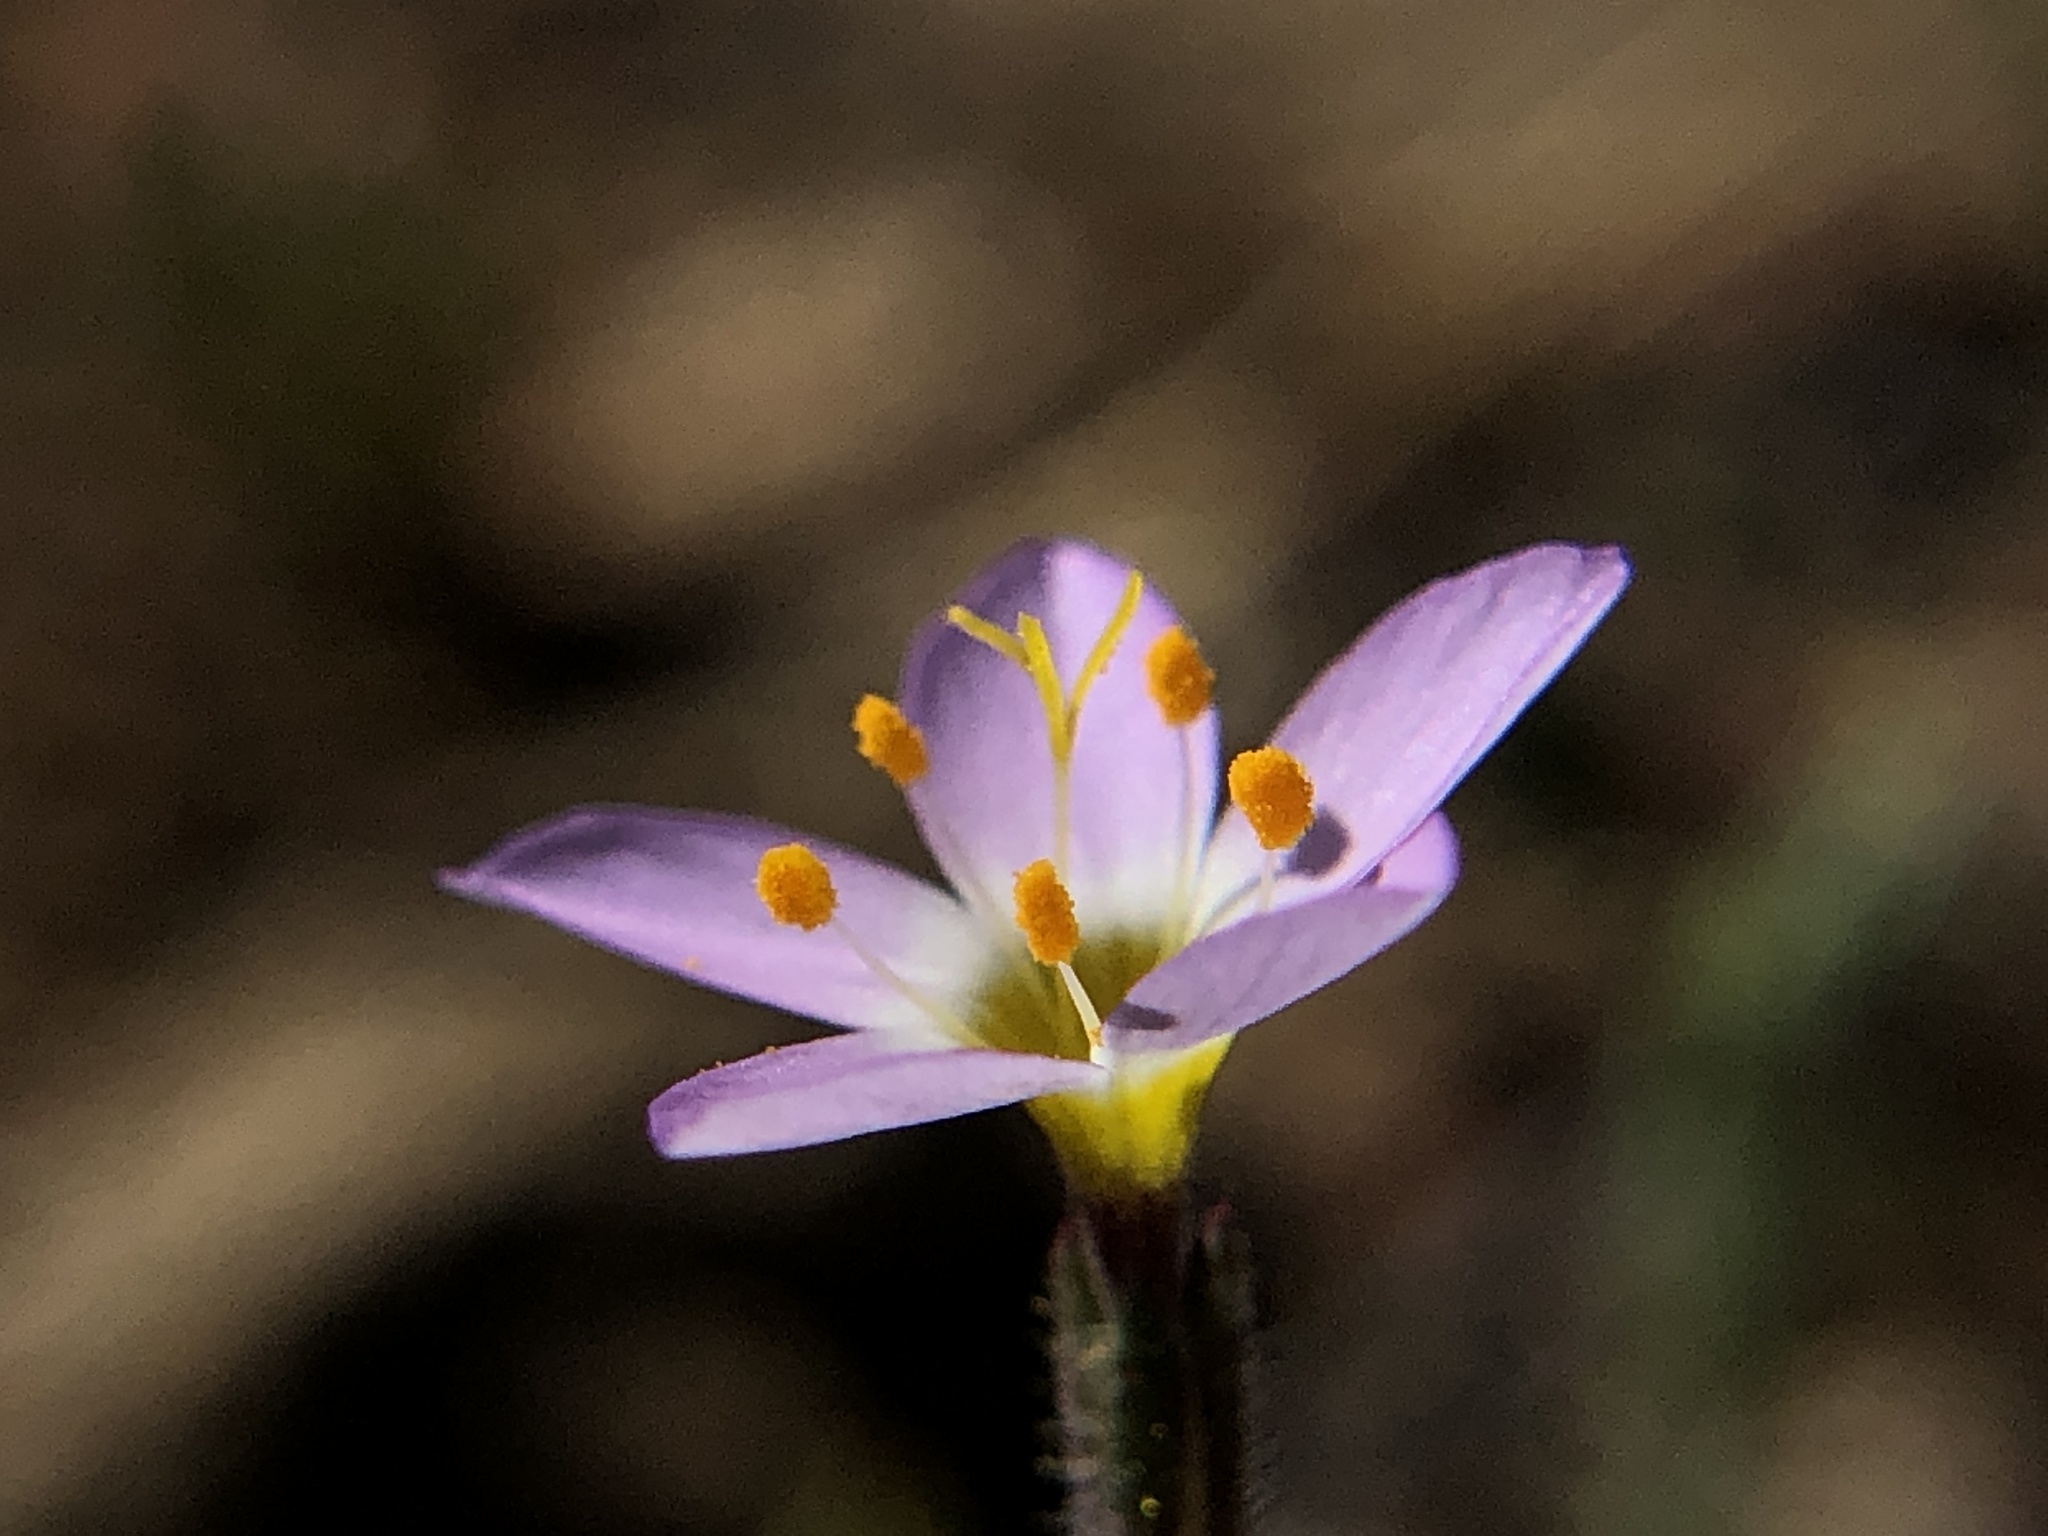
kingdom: Plantae
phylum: Tracheophyta
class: Magnoliopsida
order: Ericales
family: Polemoniaceae
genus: Leptosiphon
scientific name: Leptosiphon ambiguus
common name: Serpentine linanthus
